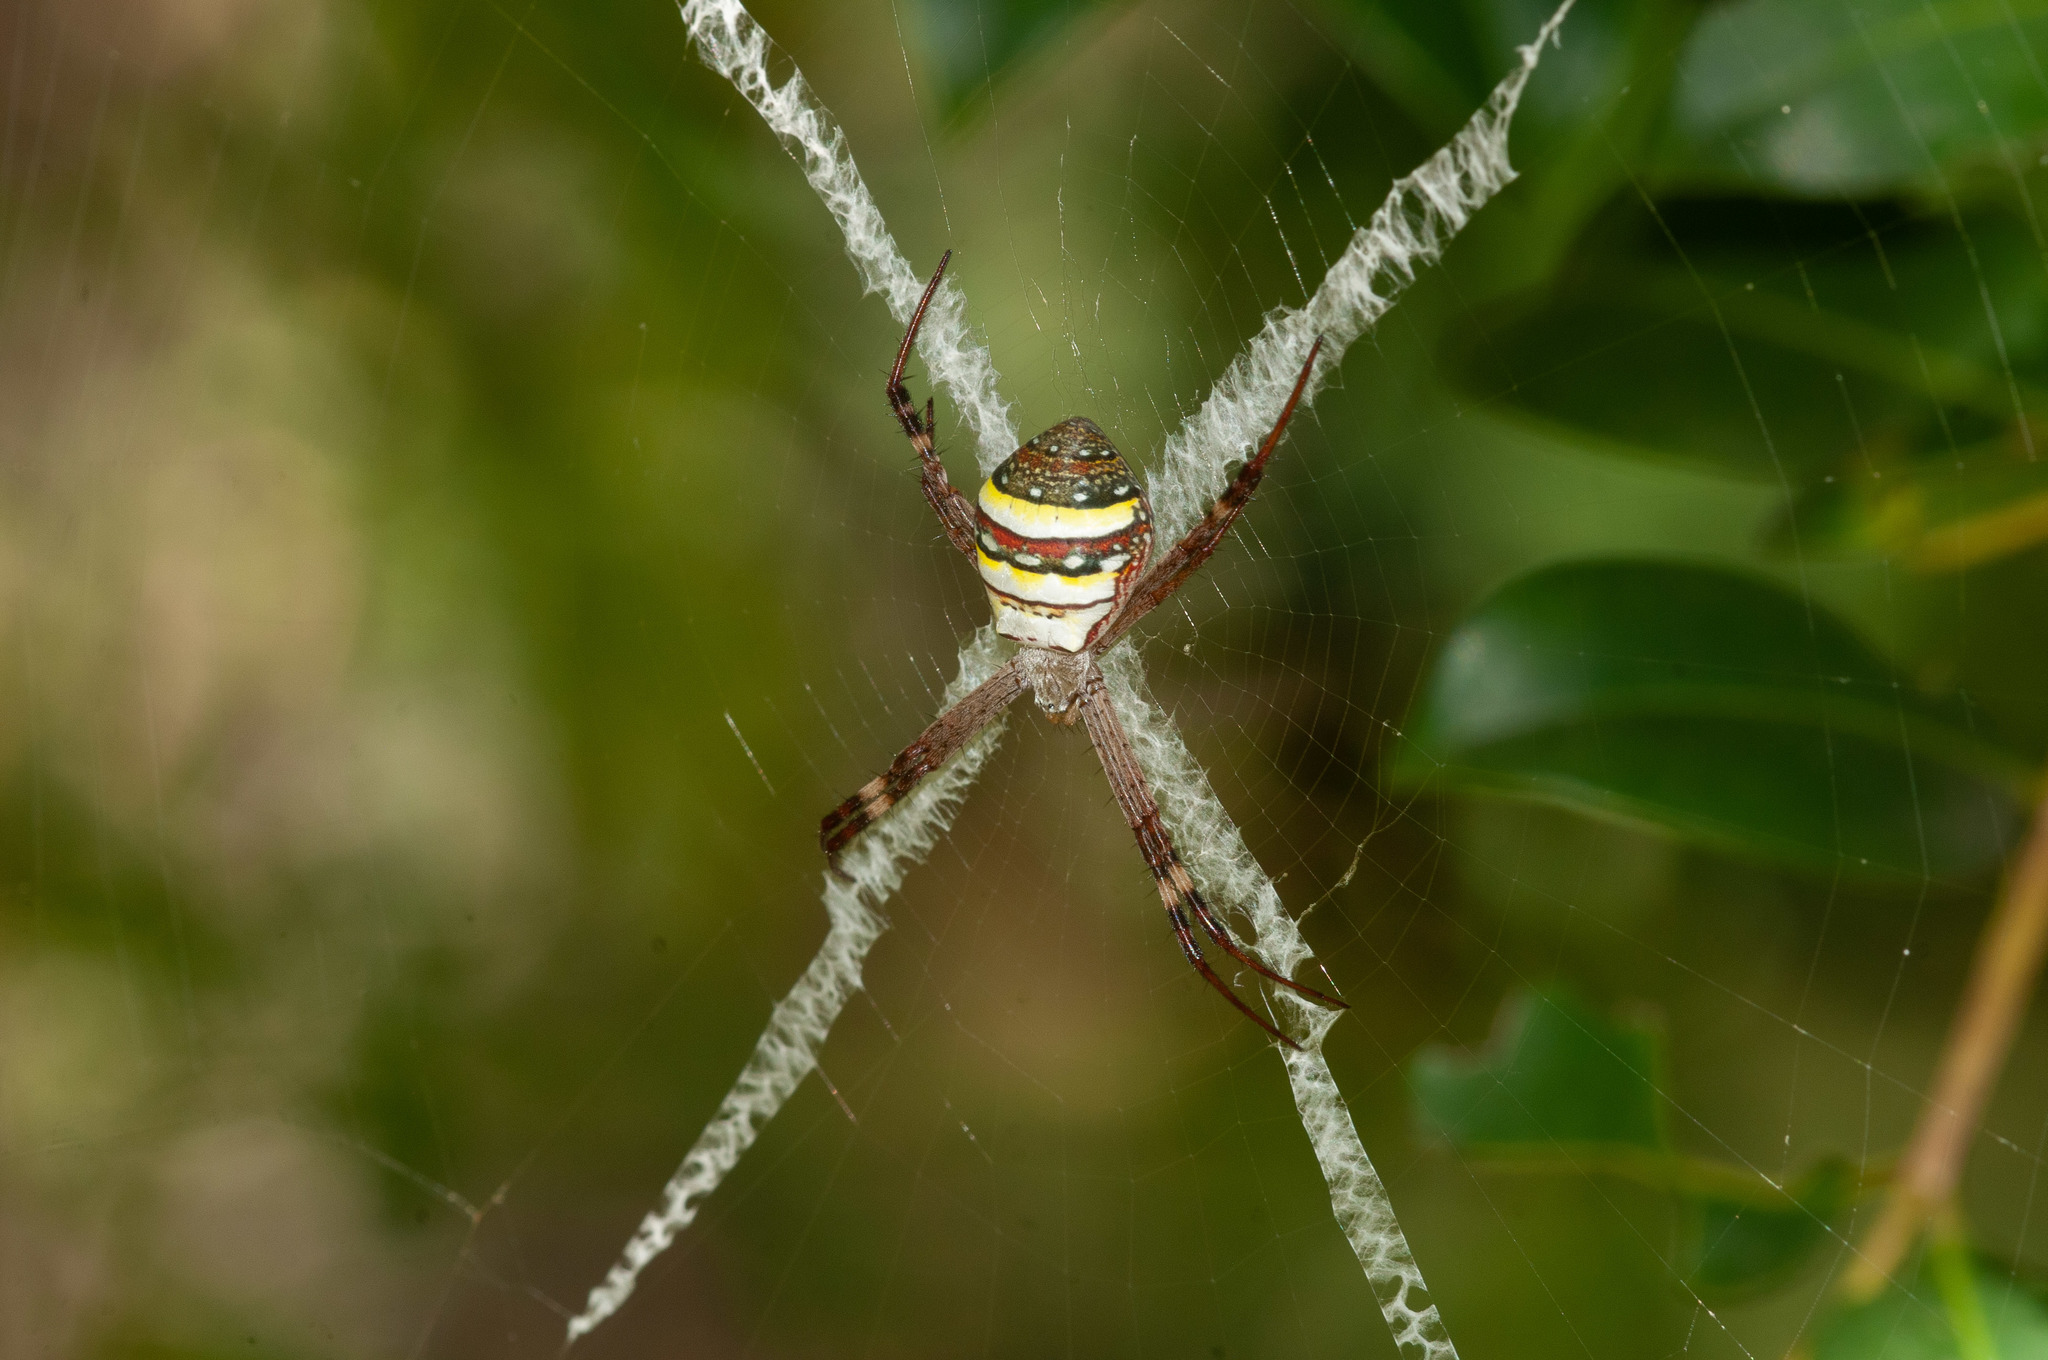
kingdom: Animalia
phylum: Arthropoda
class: Arachnida
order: Araneae
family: Araneidae
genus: Argiope
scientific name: Argiope keyserlingi
